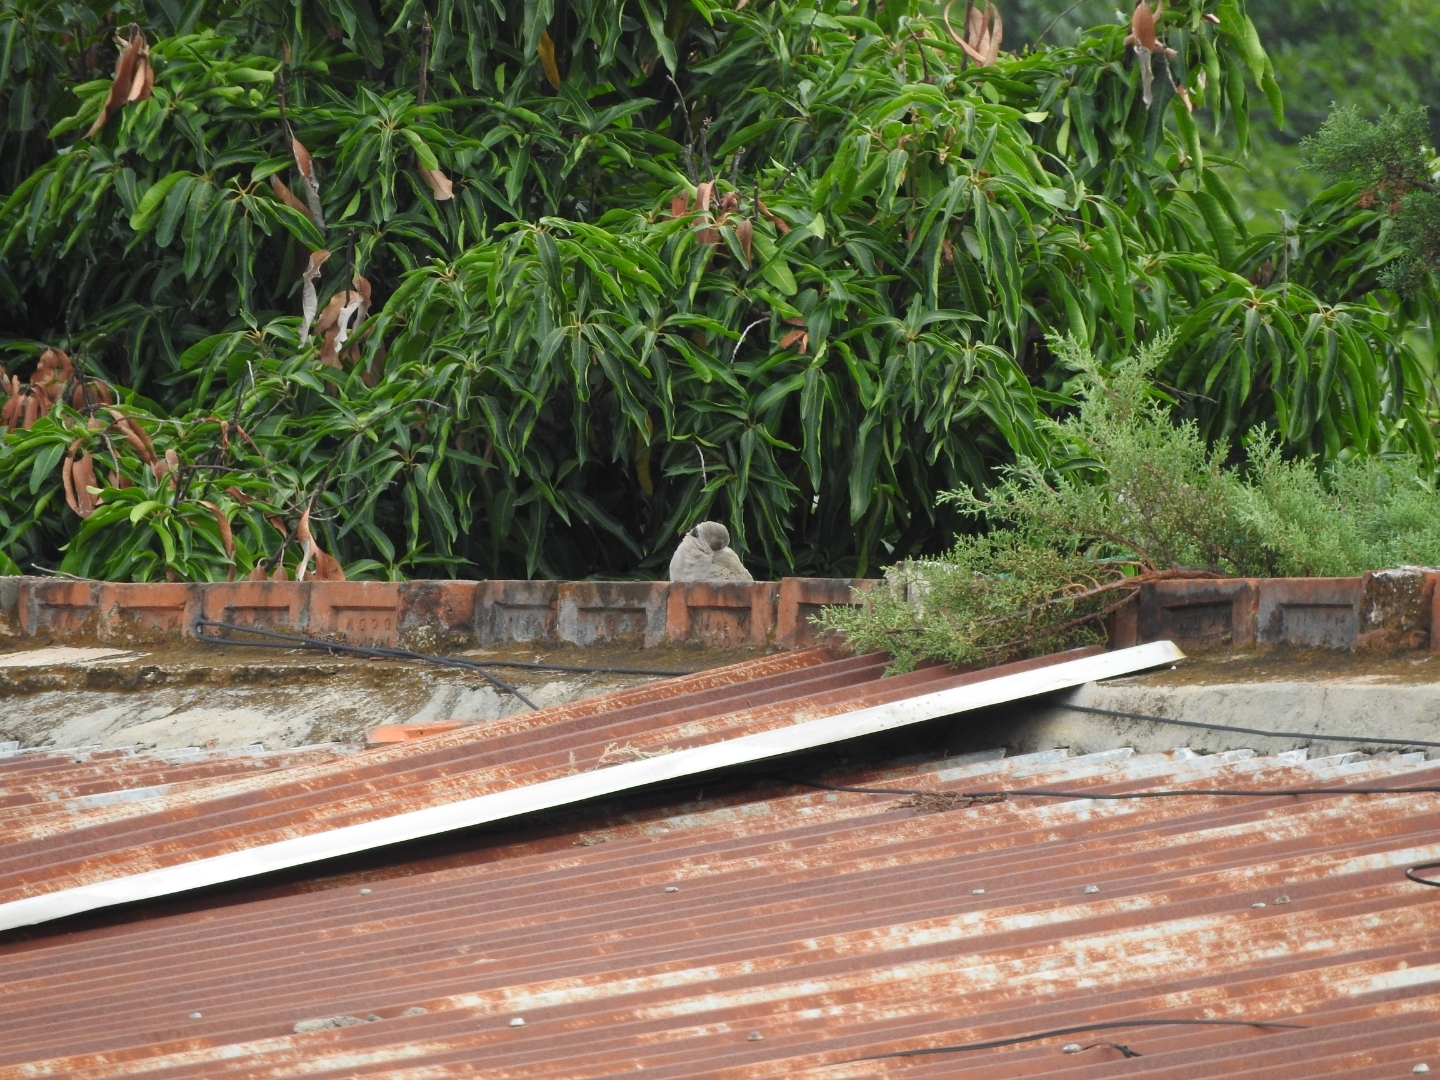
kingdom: Animalia
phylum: Chordata
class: Aves
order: Columbiformes
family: Columbidae
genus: Columbina
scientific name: Columbina inca
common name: Inca dove
